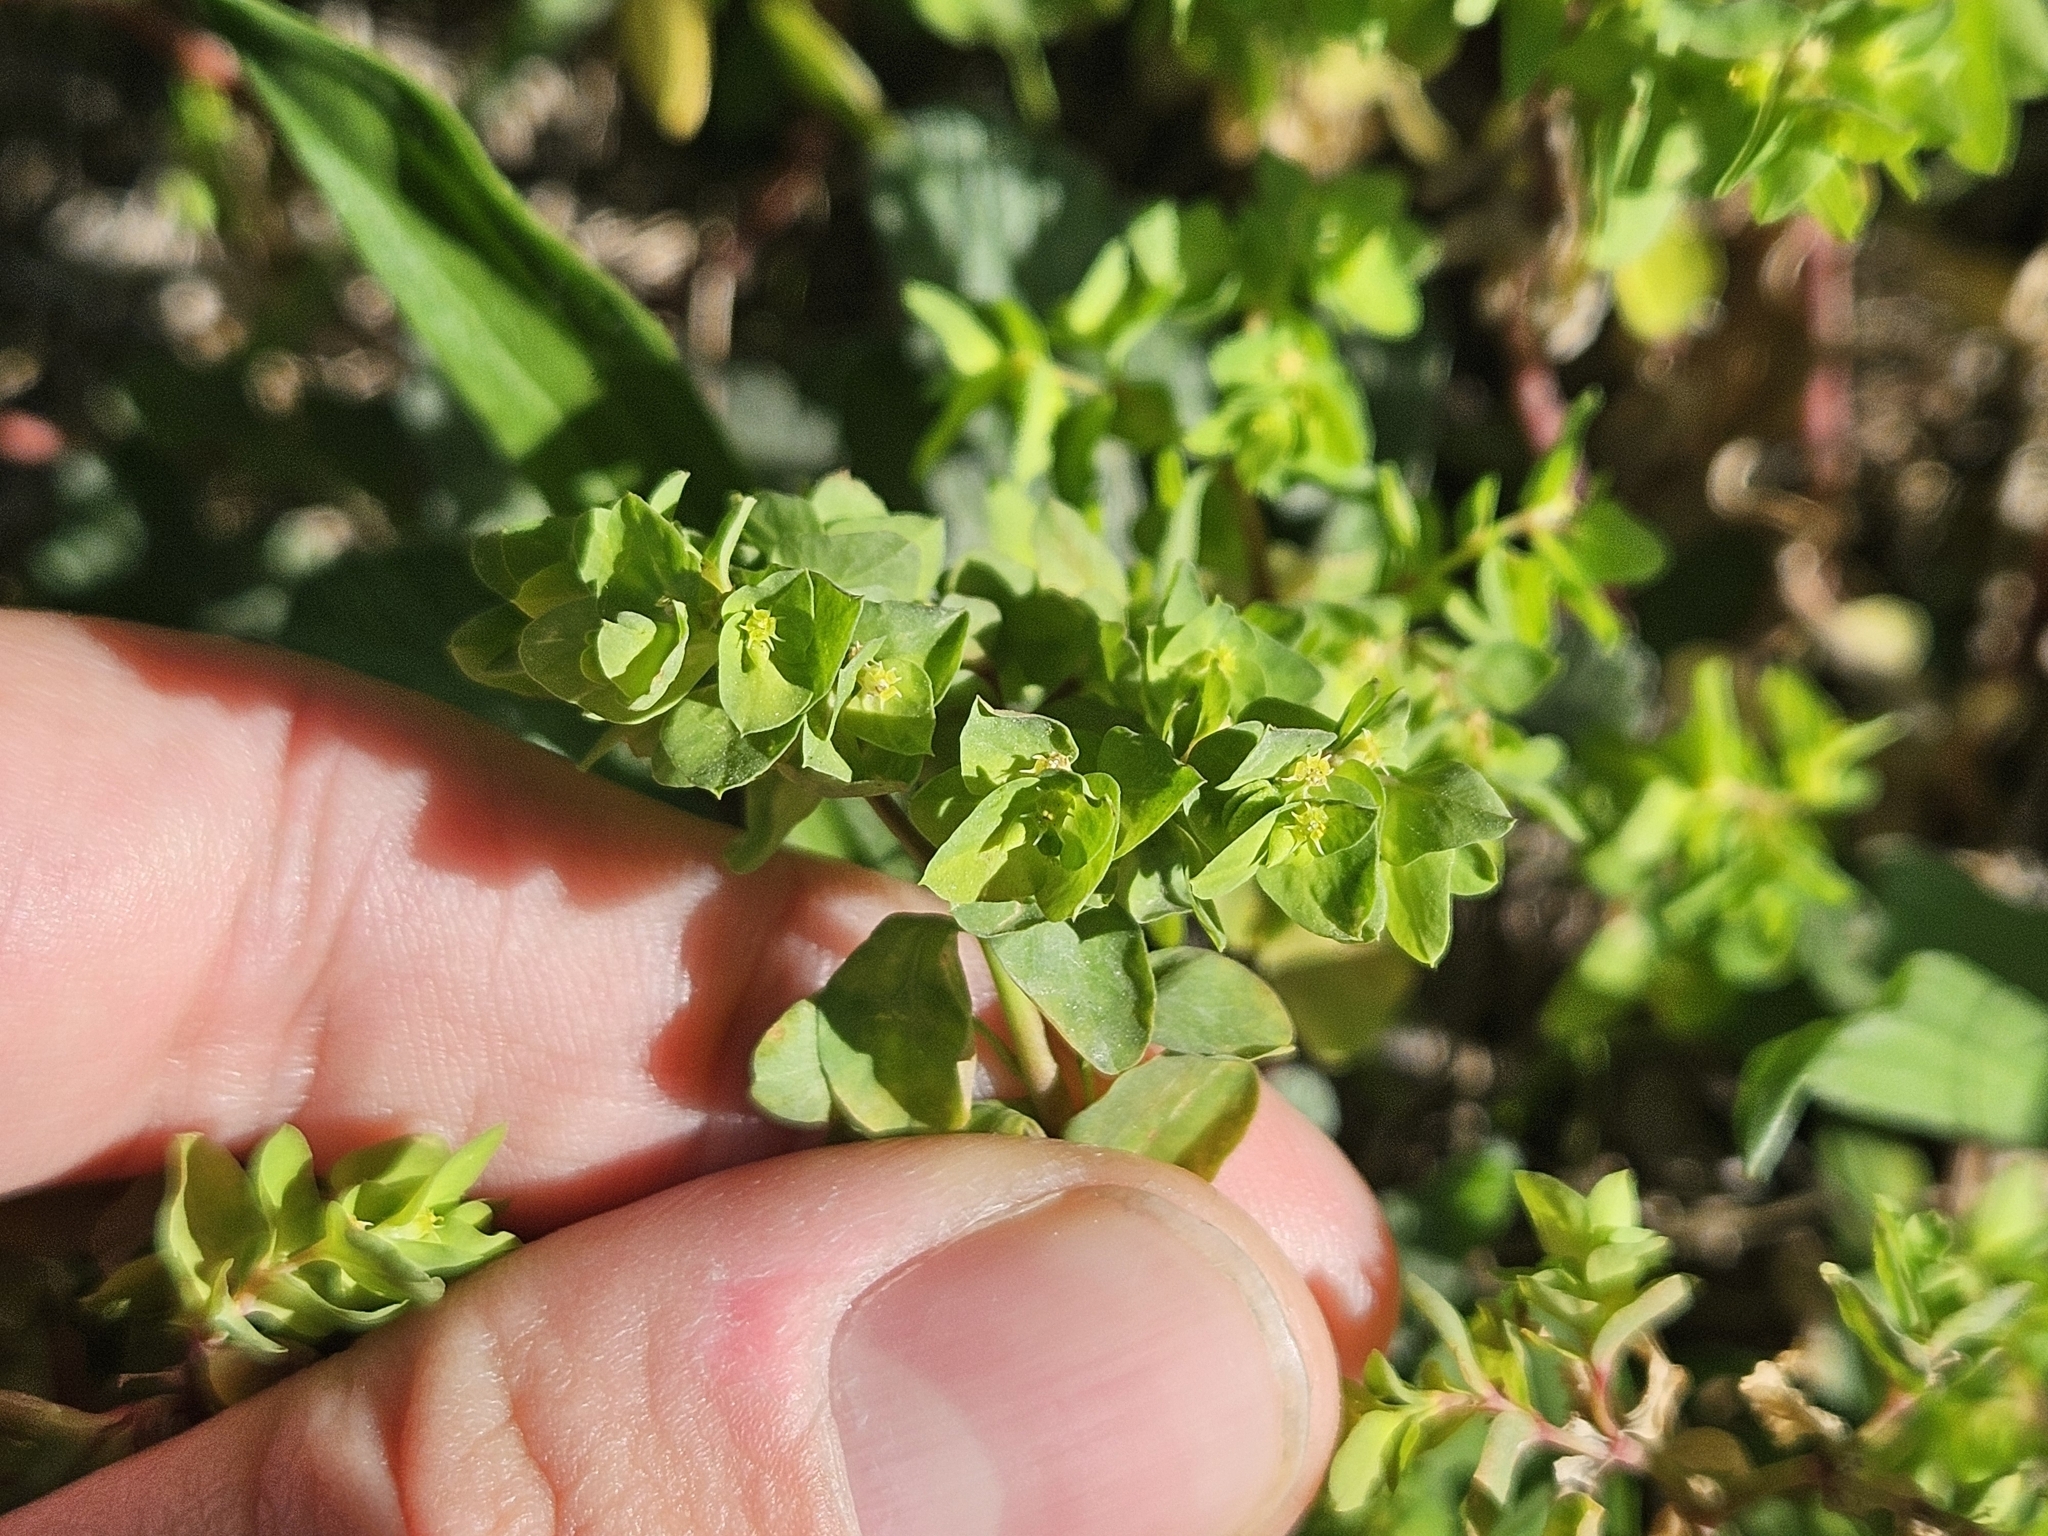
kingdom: Plantae
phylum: Tracheophyta
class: Magnoliopsida
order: Malpighiales
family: Euphorbiaceae
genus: Euphorbia
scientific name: Euphorbia peplus
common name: Petty spurge
